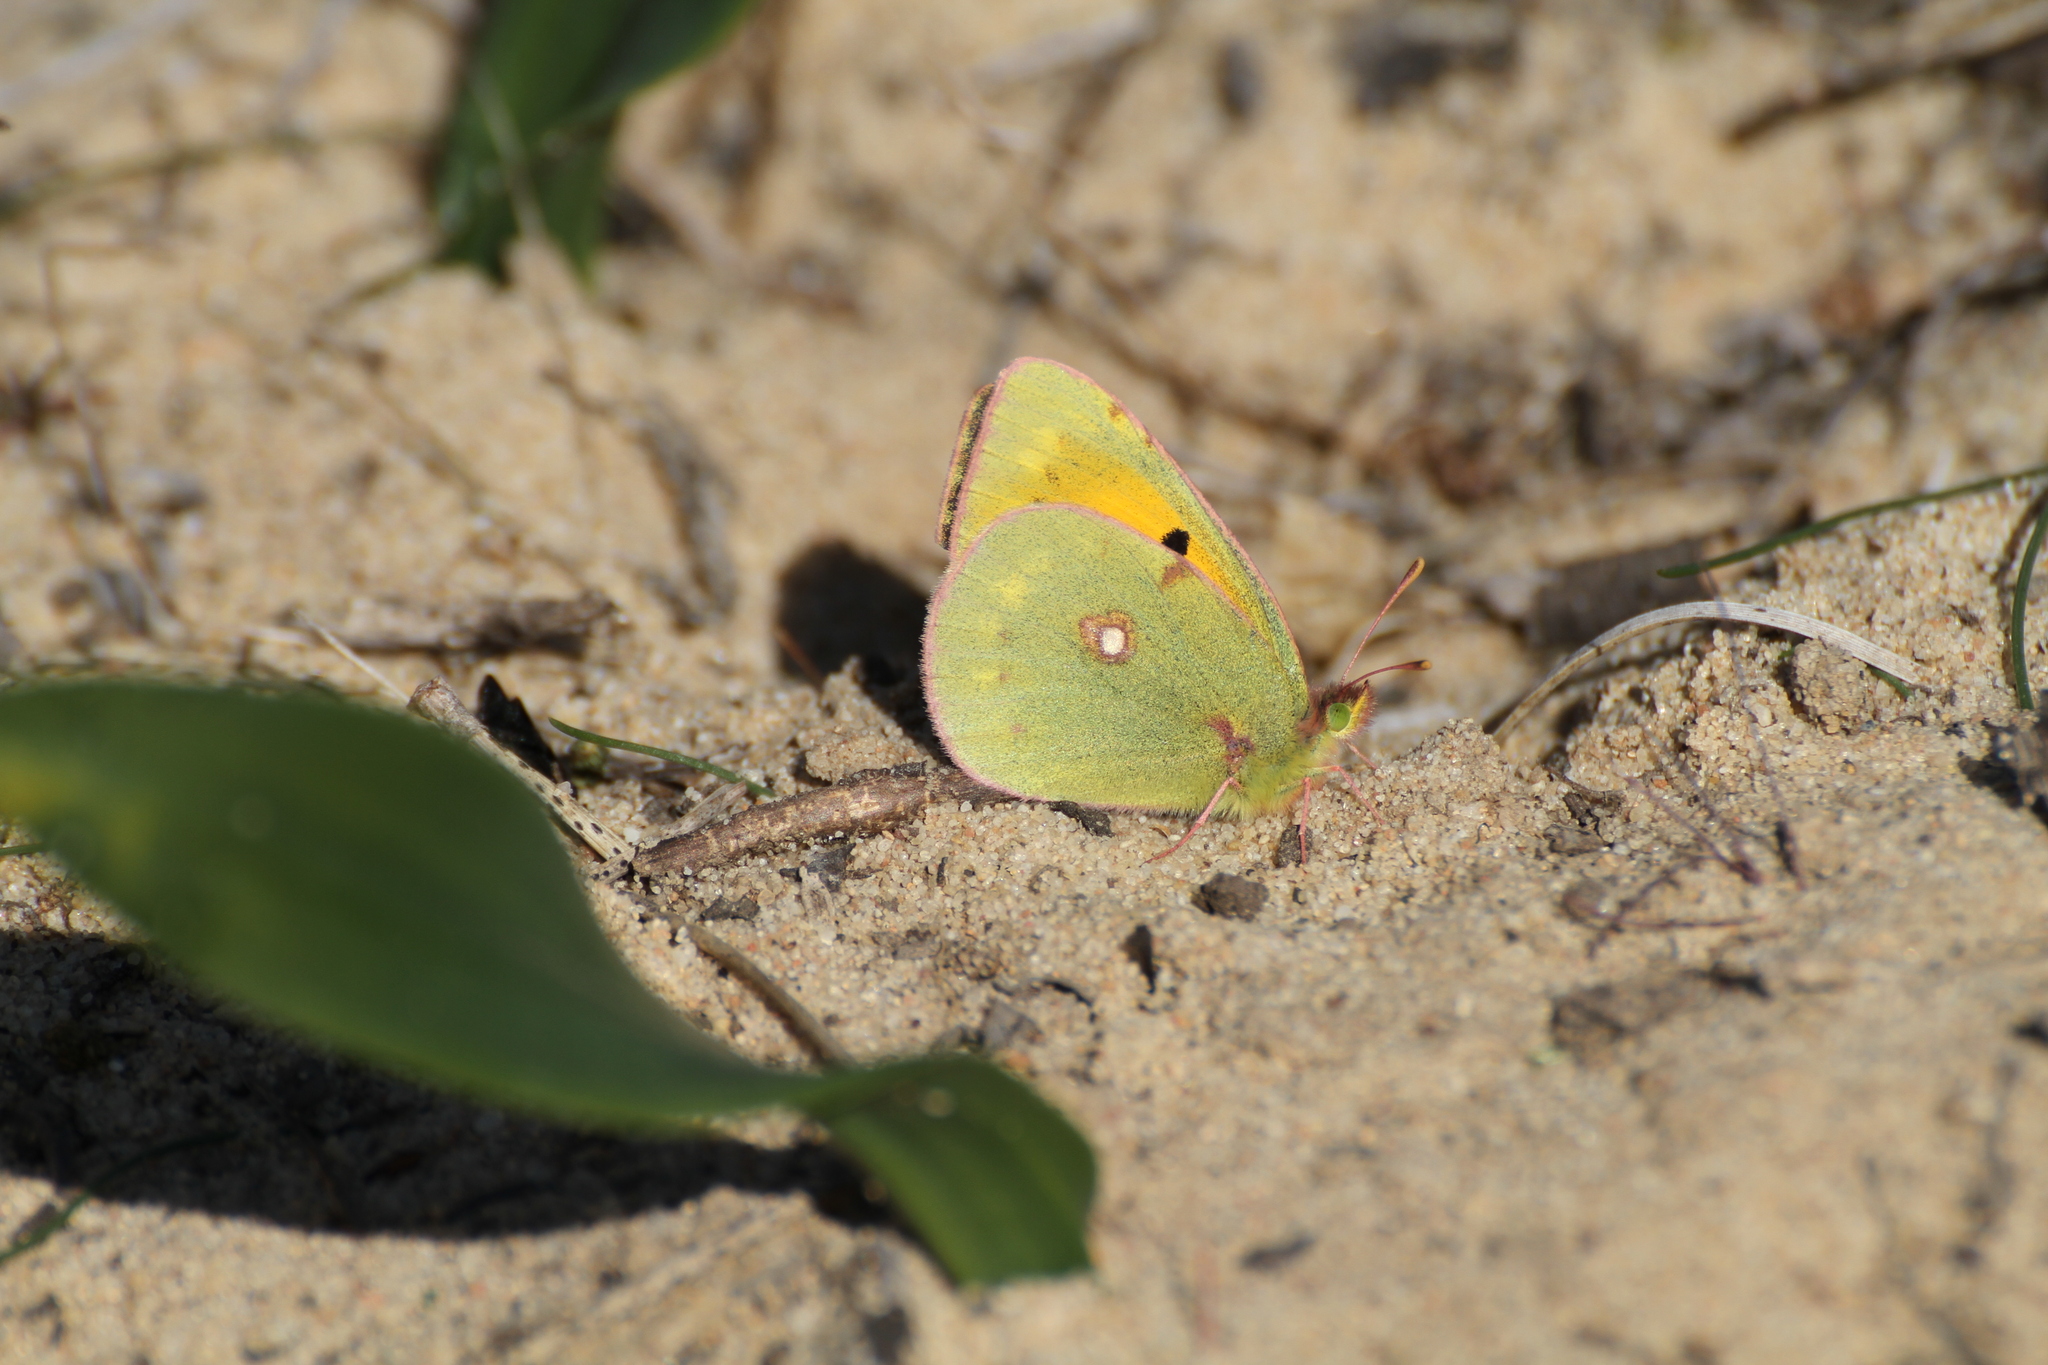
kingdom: Animalia
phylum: Arthropoda
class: Insecta
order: Lepidoptera
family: Pieridae
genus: Colias
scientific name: Colias croceus
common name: Clouded yellow
